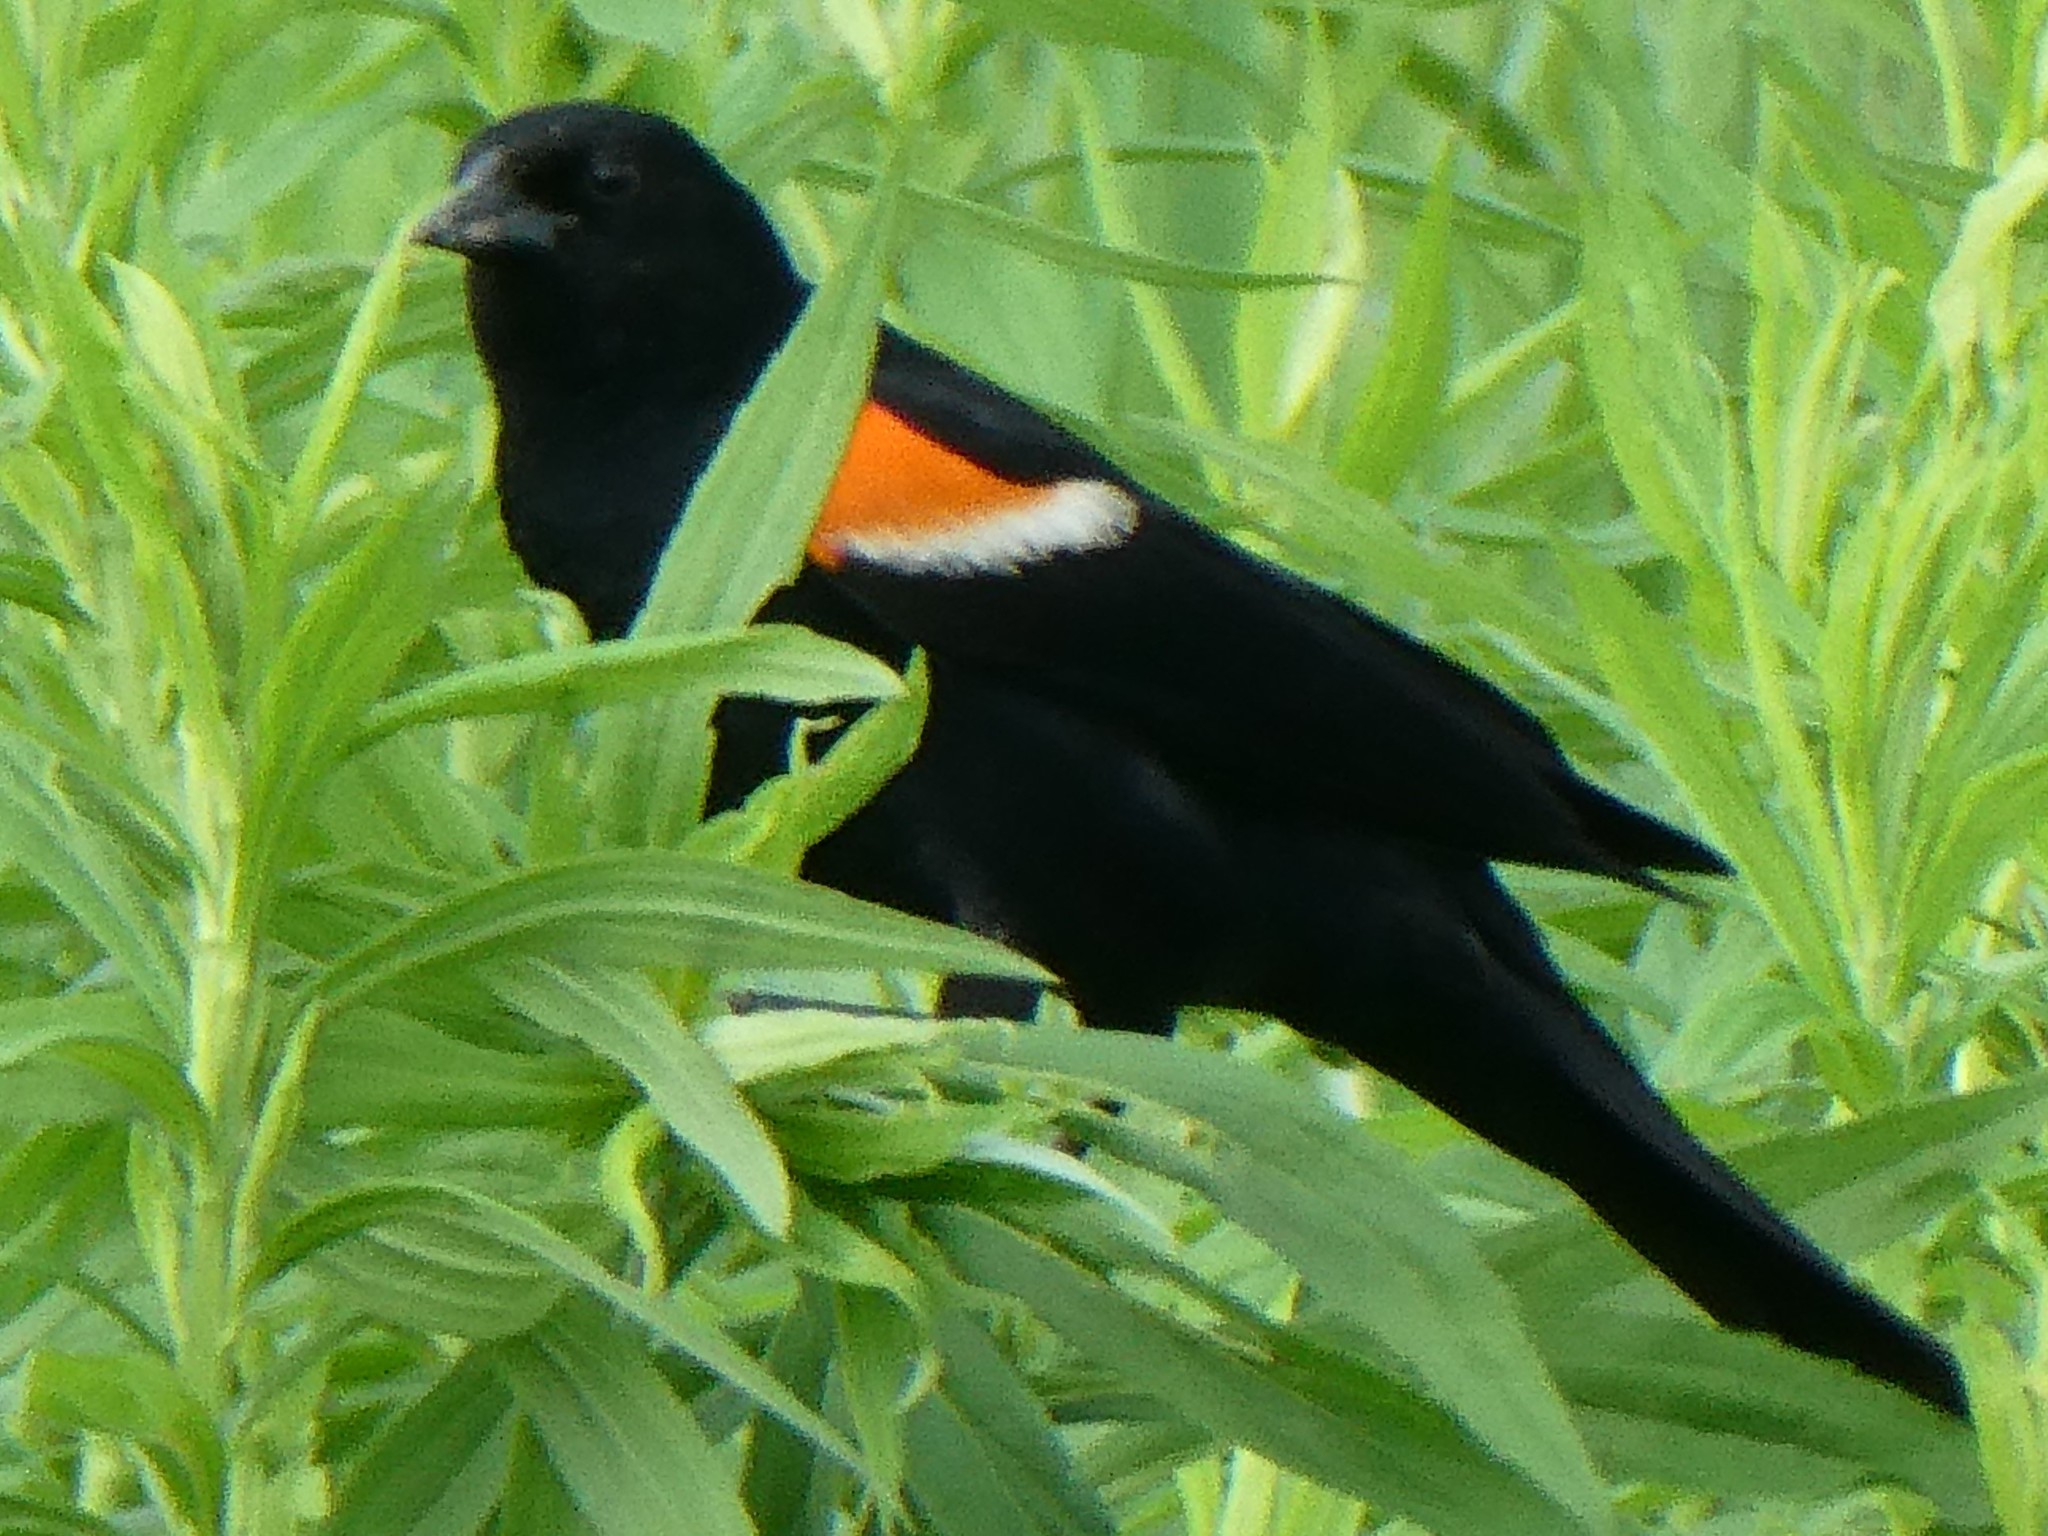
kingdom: Animalia
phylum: Chordata
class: Aves
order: Passeriformes
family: Icteridae
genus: Agelaius
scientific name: Agelaius phoeniceus
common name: Red-winged blackbird
